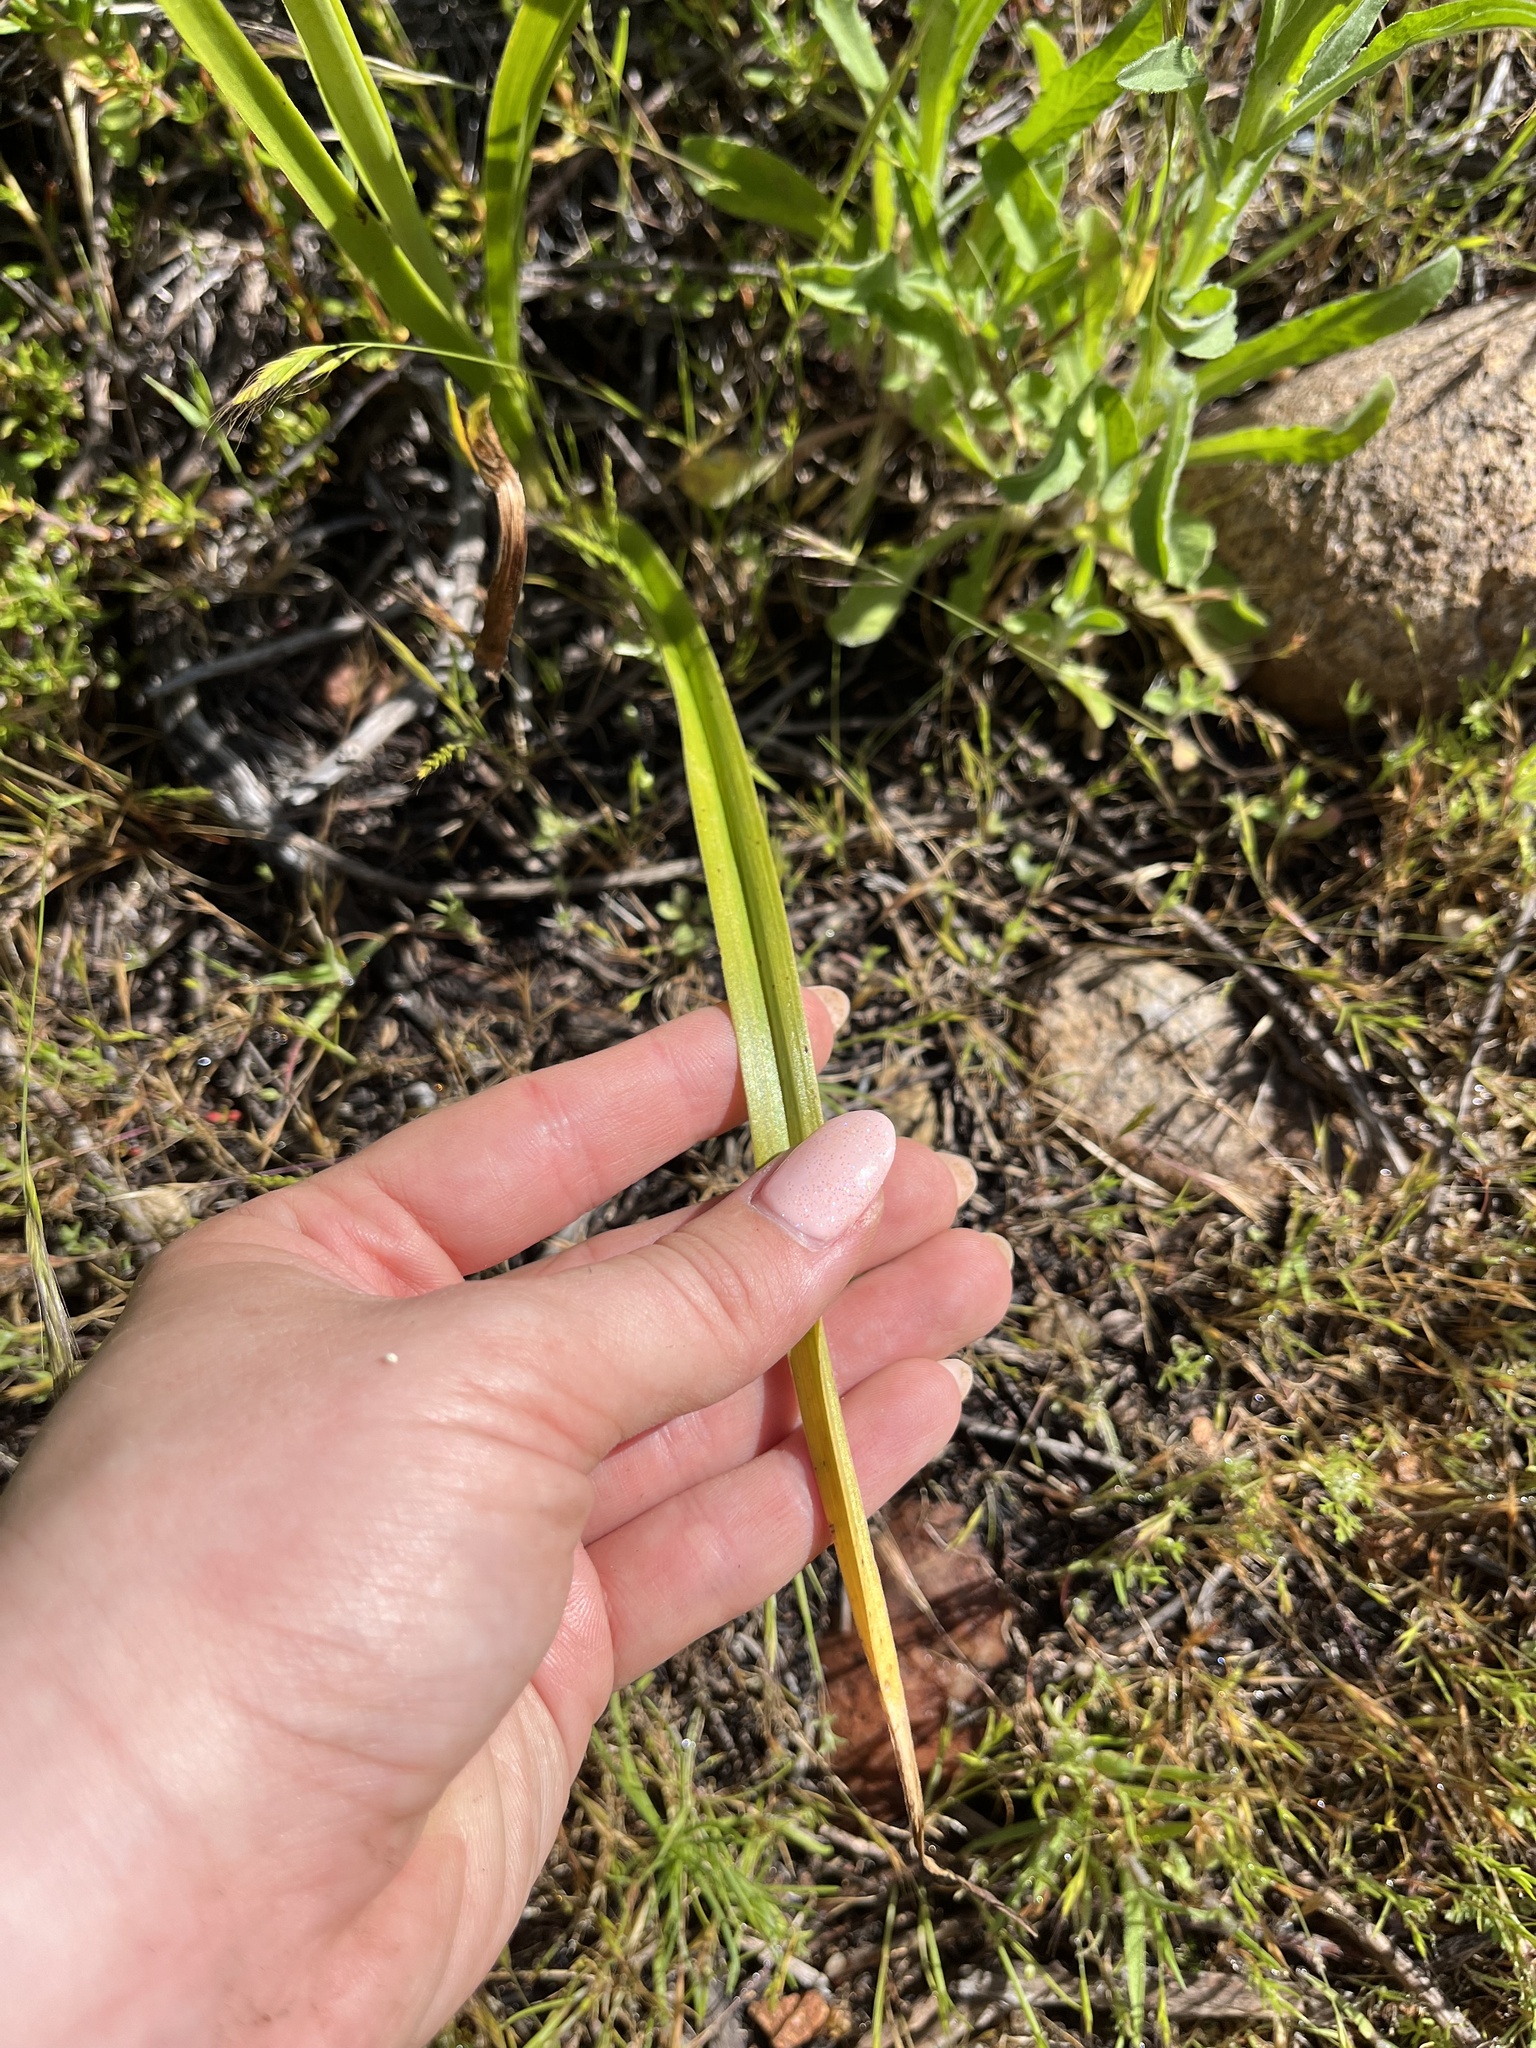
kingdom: Plantae
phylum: Tracheophyta
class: Liliopsida
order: Liliales
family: Melanthiaceae
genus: Toxicoscordion
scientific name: Toxicoscordion fremontii
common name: Fremont's death camas
